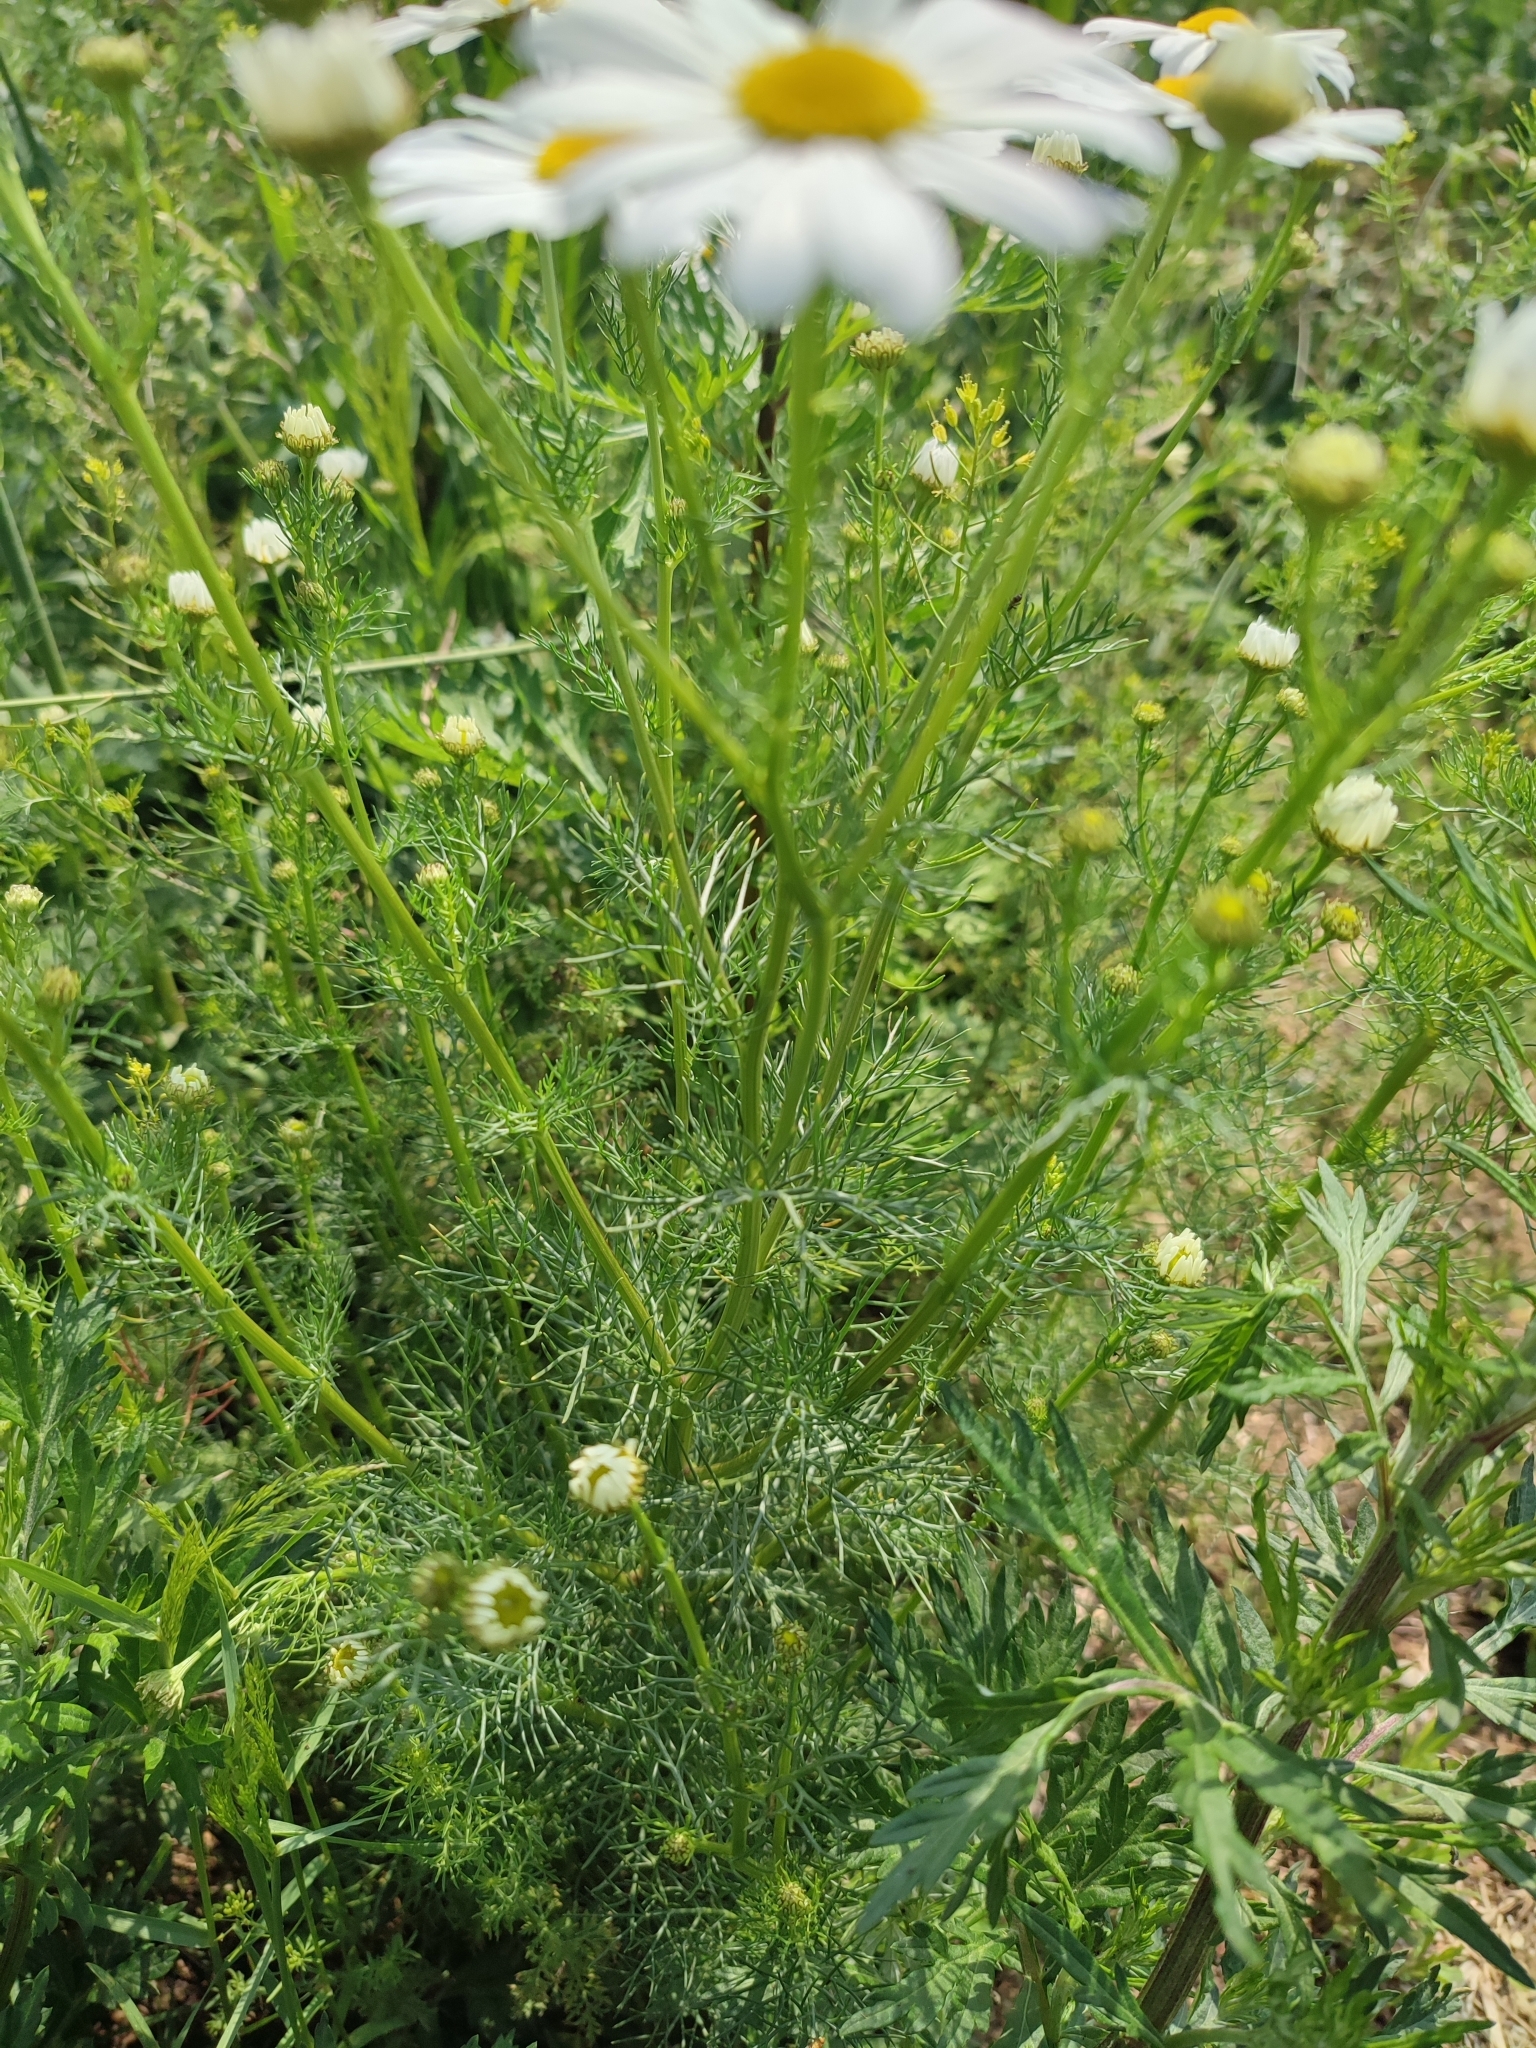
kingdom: Plantae
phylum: Tracheophyta
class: Magnoliopsida
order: Asterales
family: Asteraceae
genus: Tripleurospermum
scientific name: Tripleurospermum inodorum
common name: Scentless mayweed
